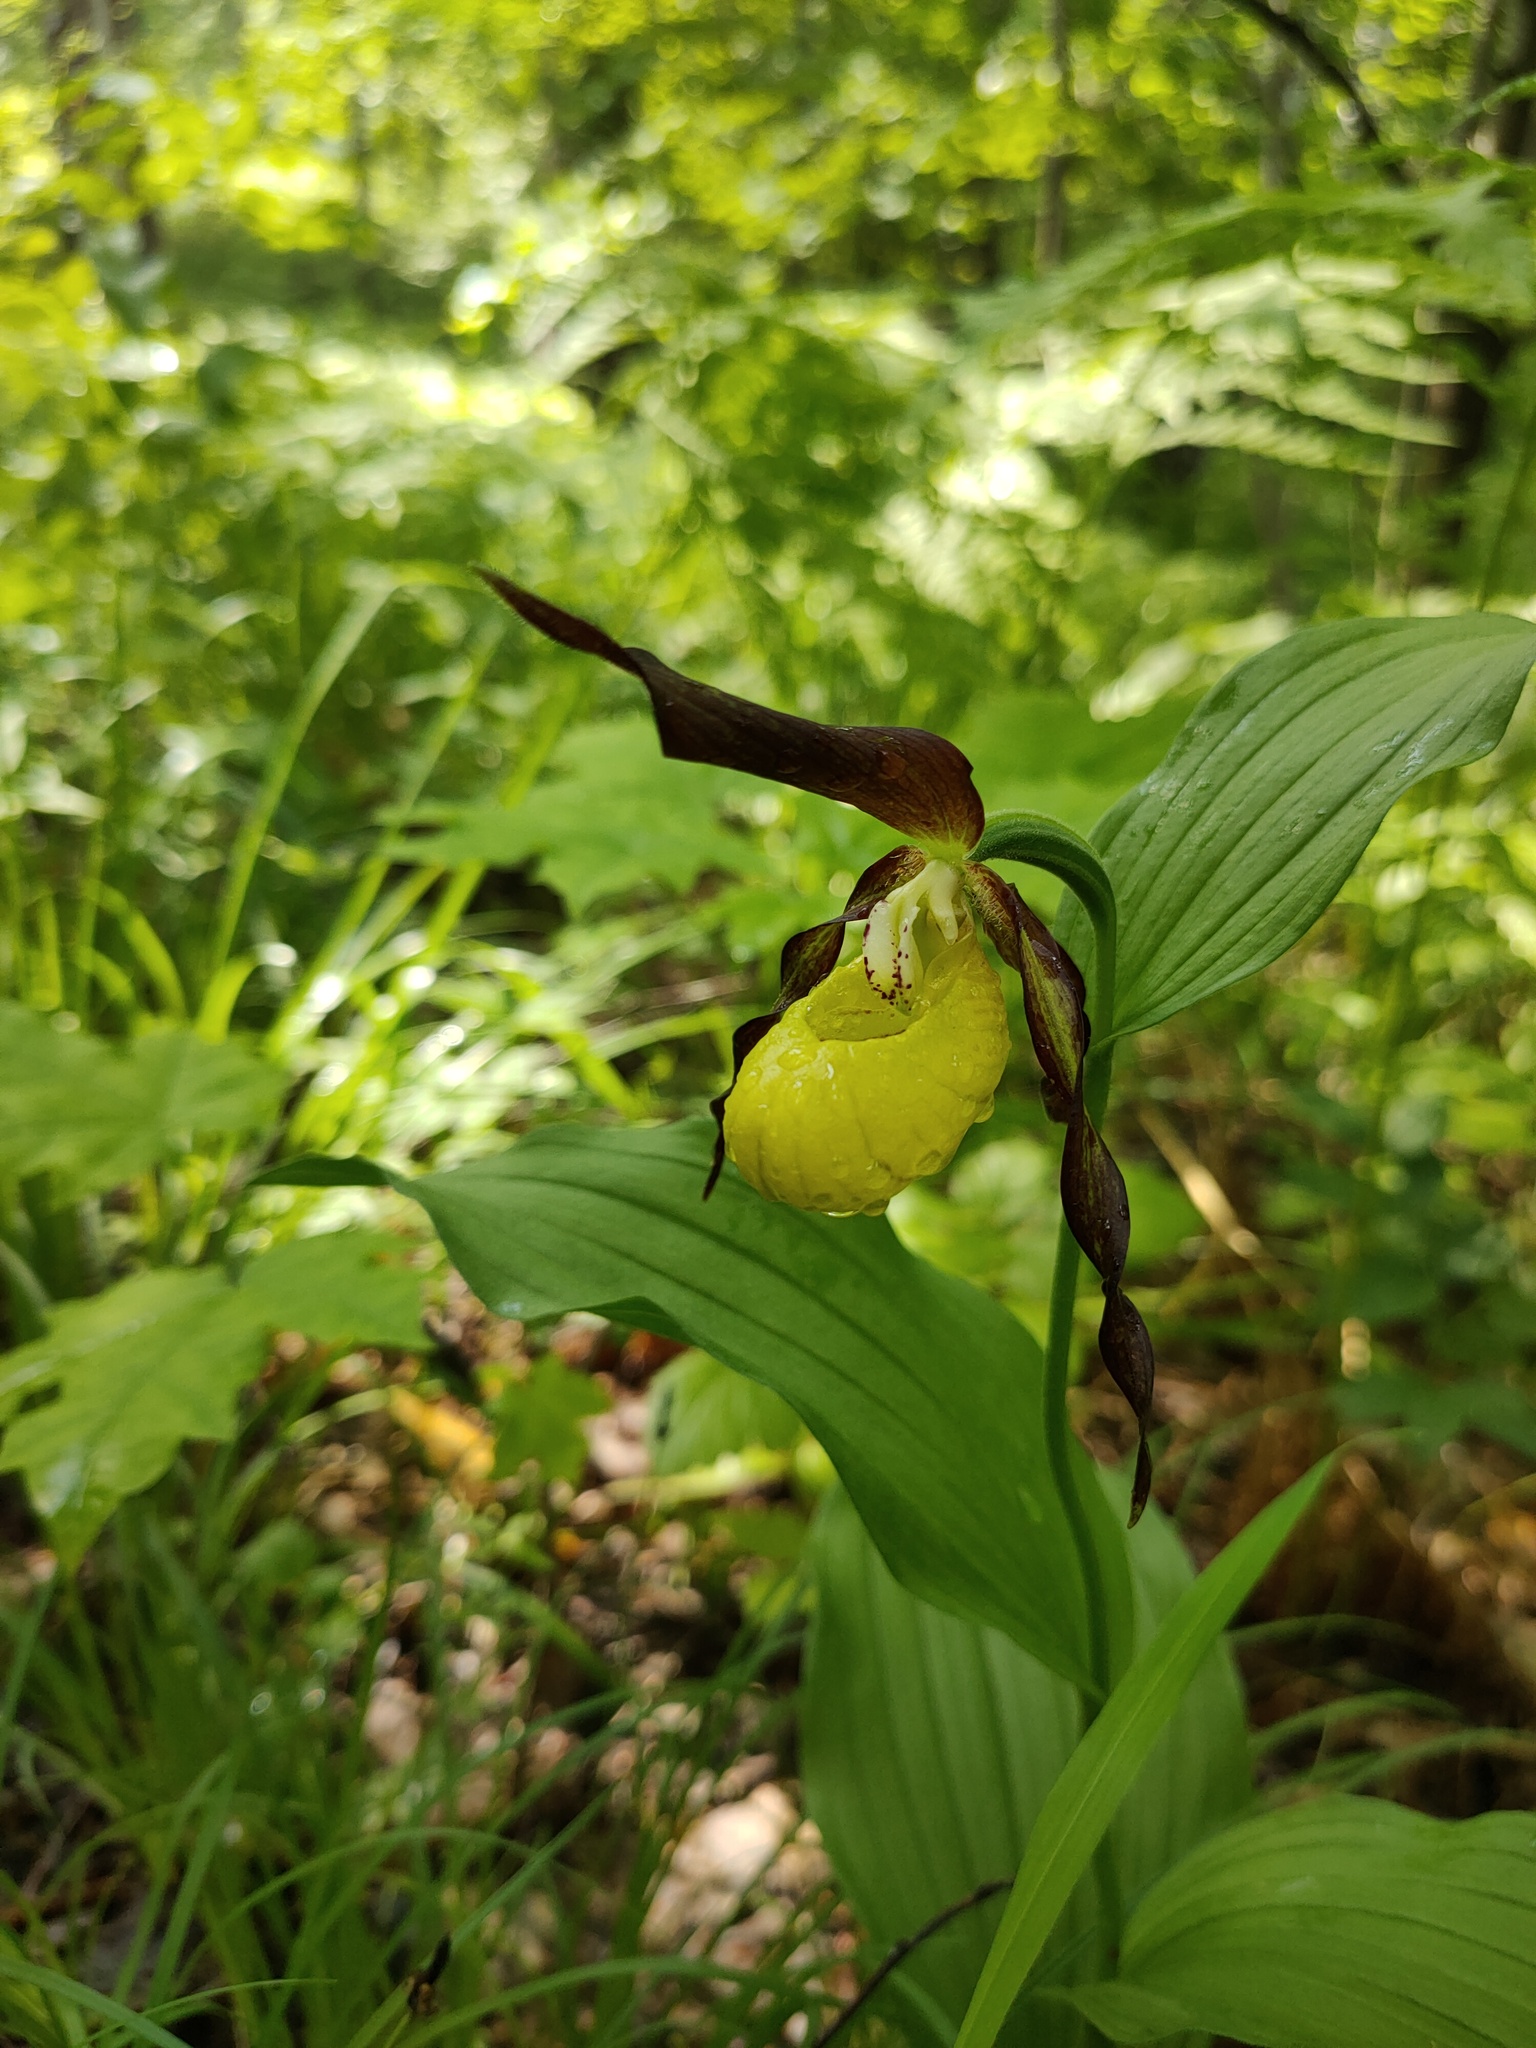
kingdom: Plantae
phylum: Tracheophyta
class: Liliopsida
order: Asparagales
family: Orchidaceae
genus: Cypripedium
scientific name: Cypripedium calceolus
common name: Lady's-slipper
